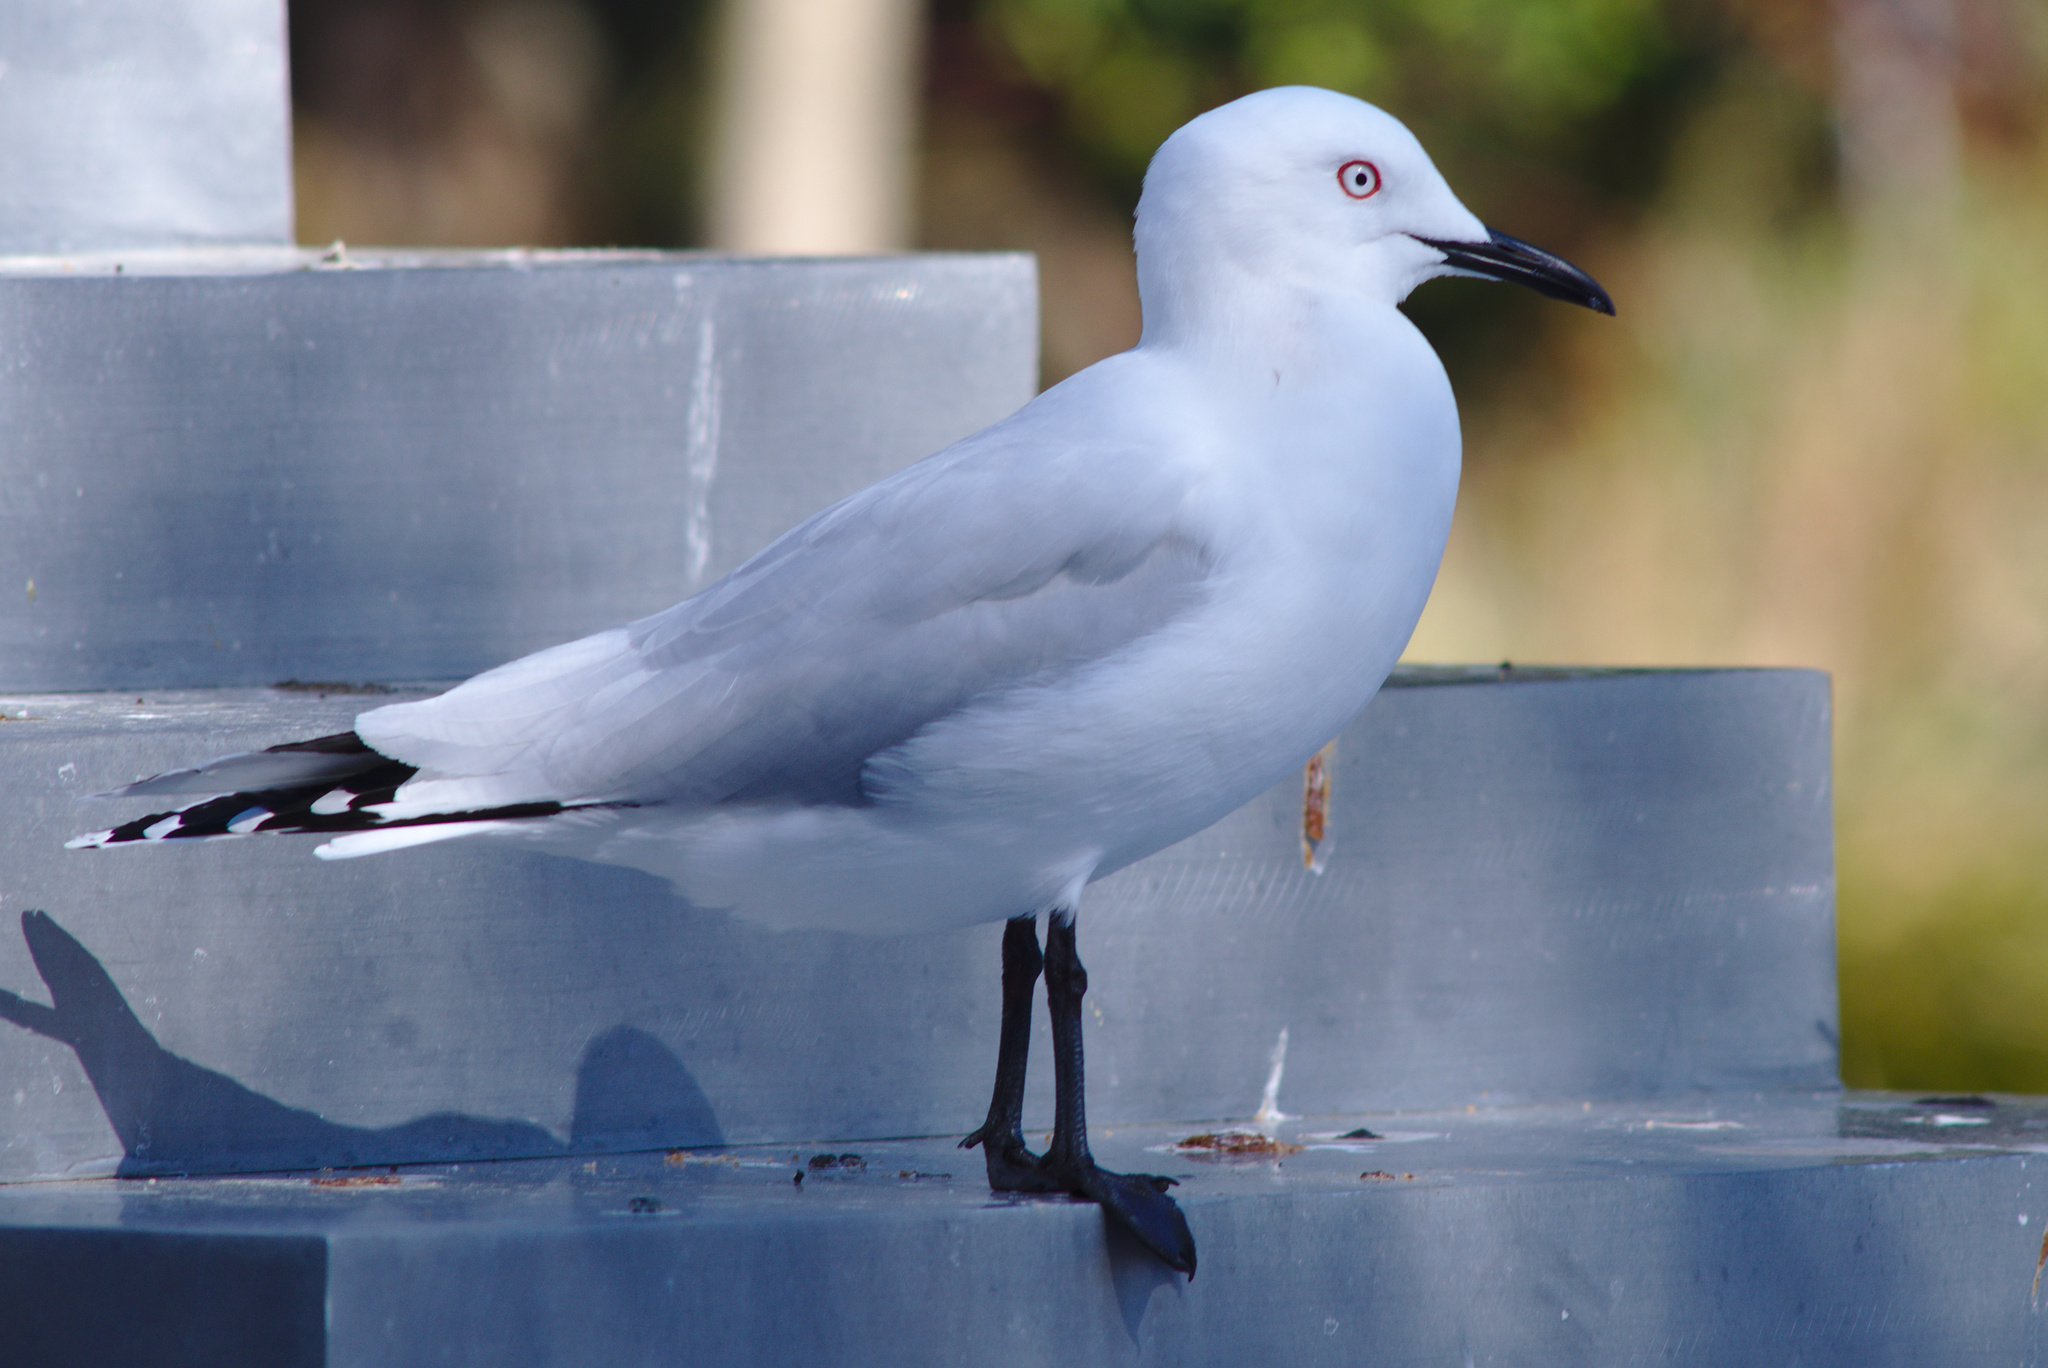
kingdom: Animalia
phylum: Chordata
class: Aves
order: Charadriiformes
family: Laridae
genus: Chroicocephalus
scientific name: Chroicocephalus bulleri
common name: Black-billed gull
